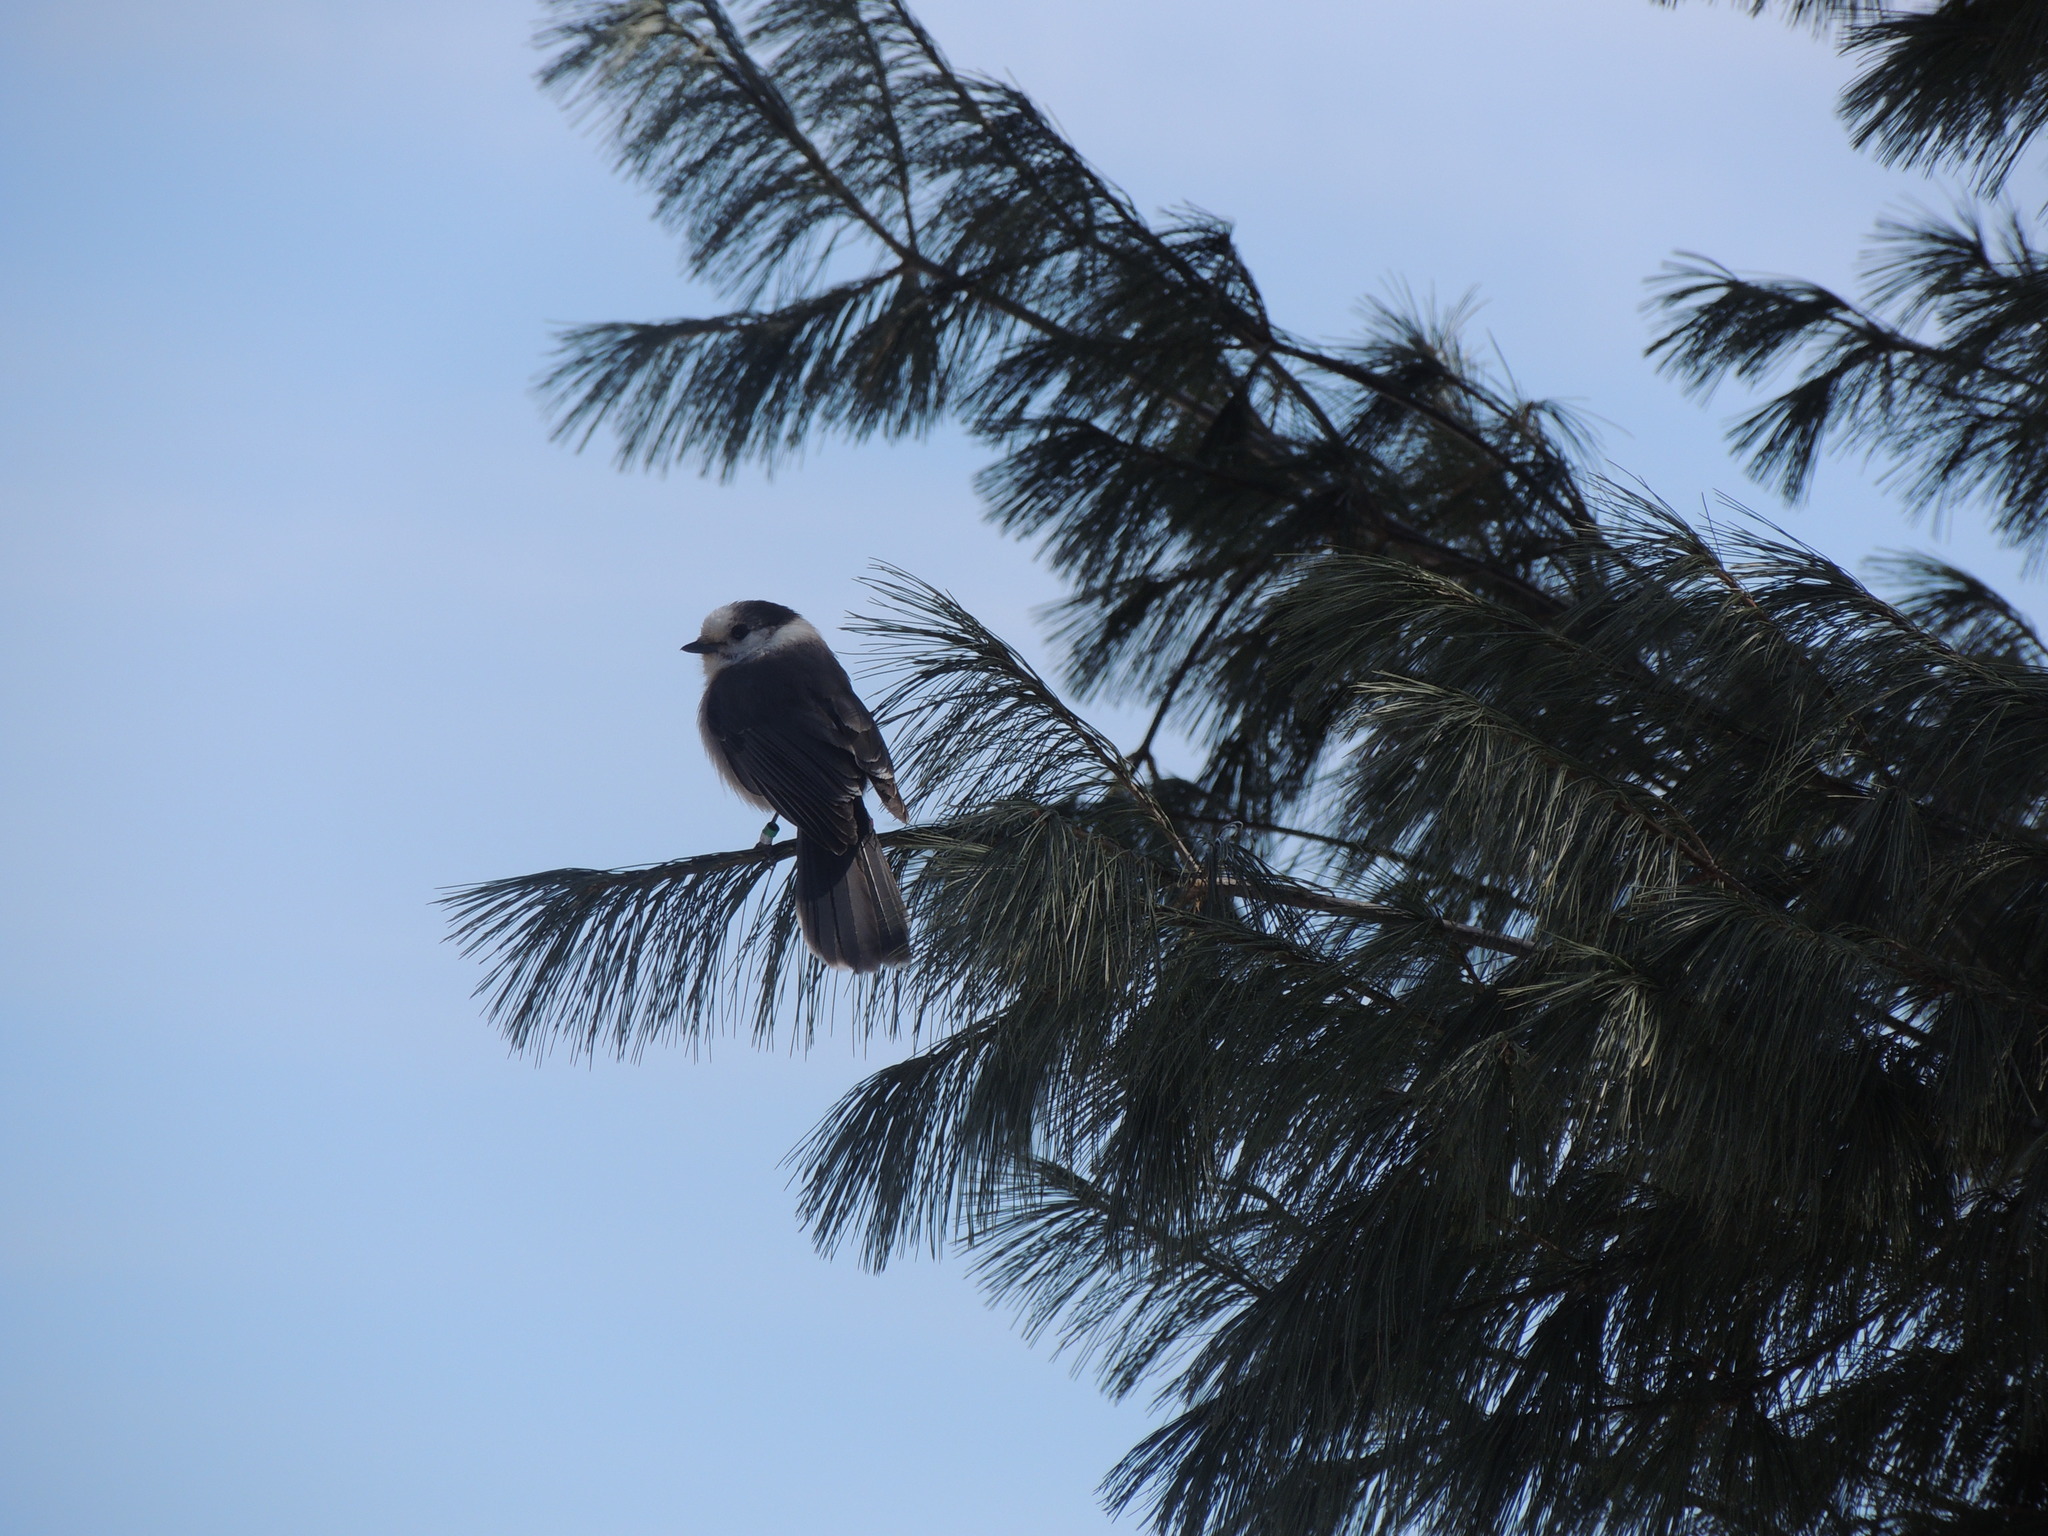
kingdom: Animalia
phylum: Chordata
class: Aves
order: Passeriformes
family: Corvidae
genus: Perisoreus
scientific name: Perisoreus canadensis
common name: Gray jay
